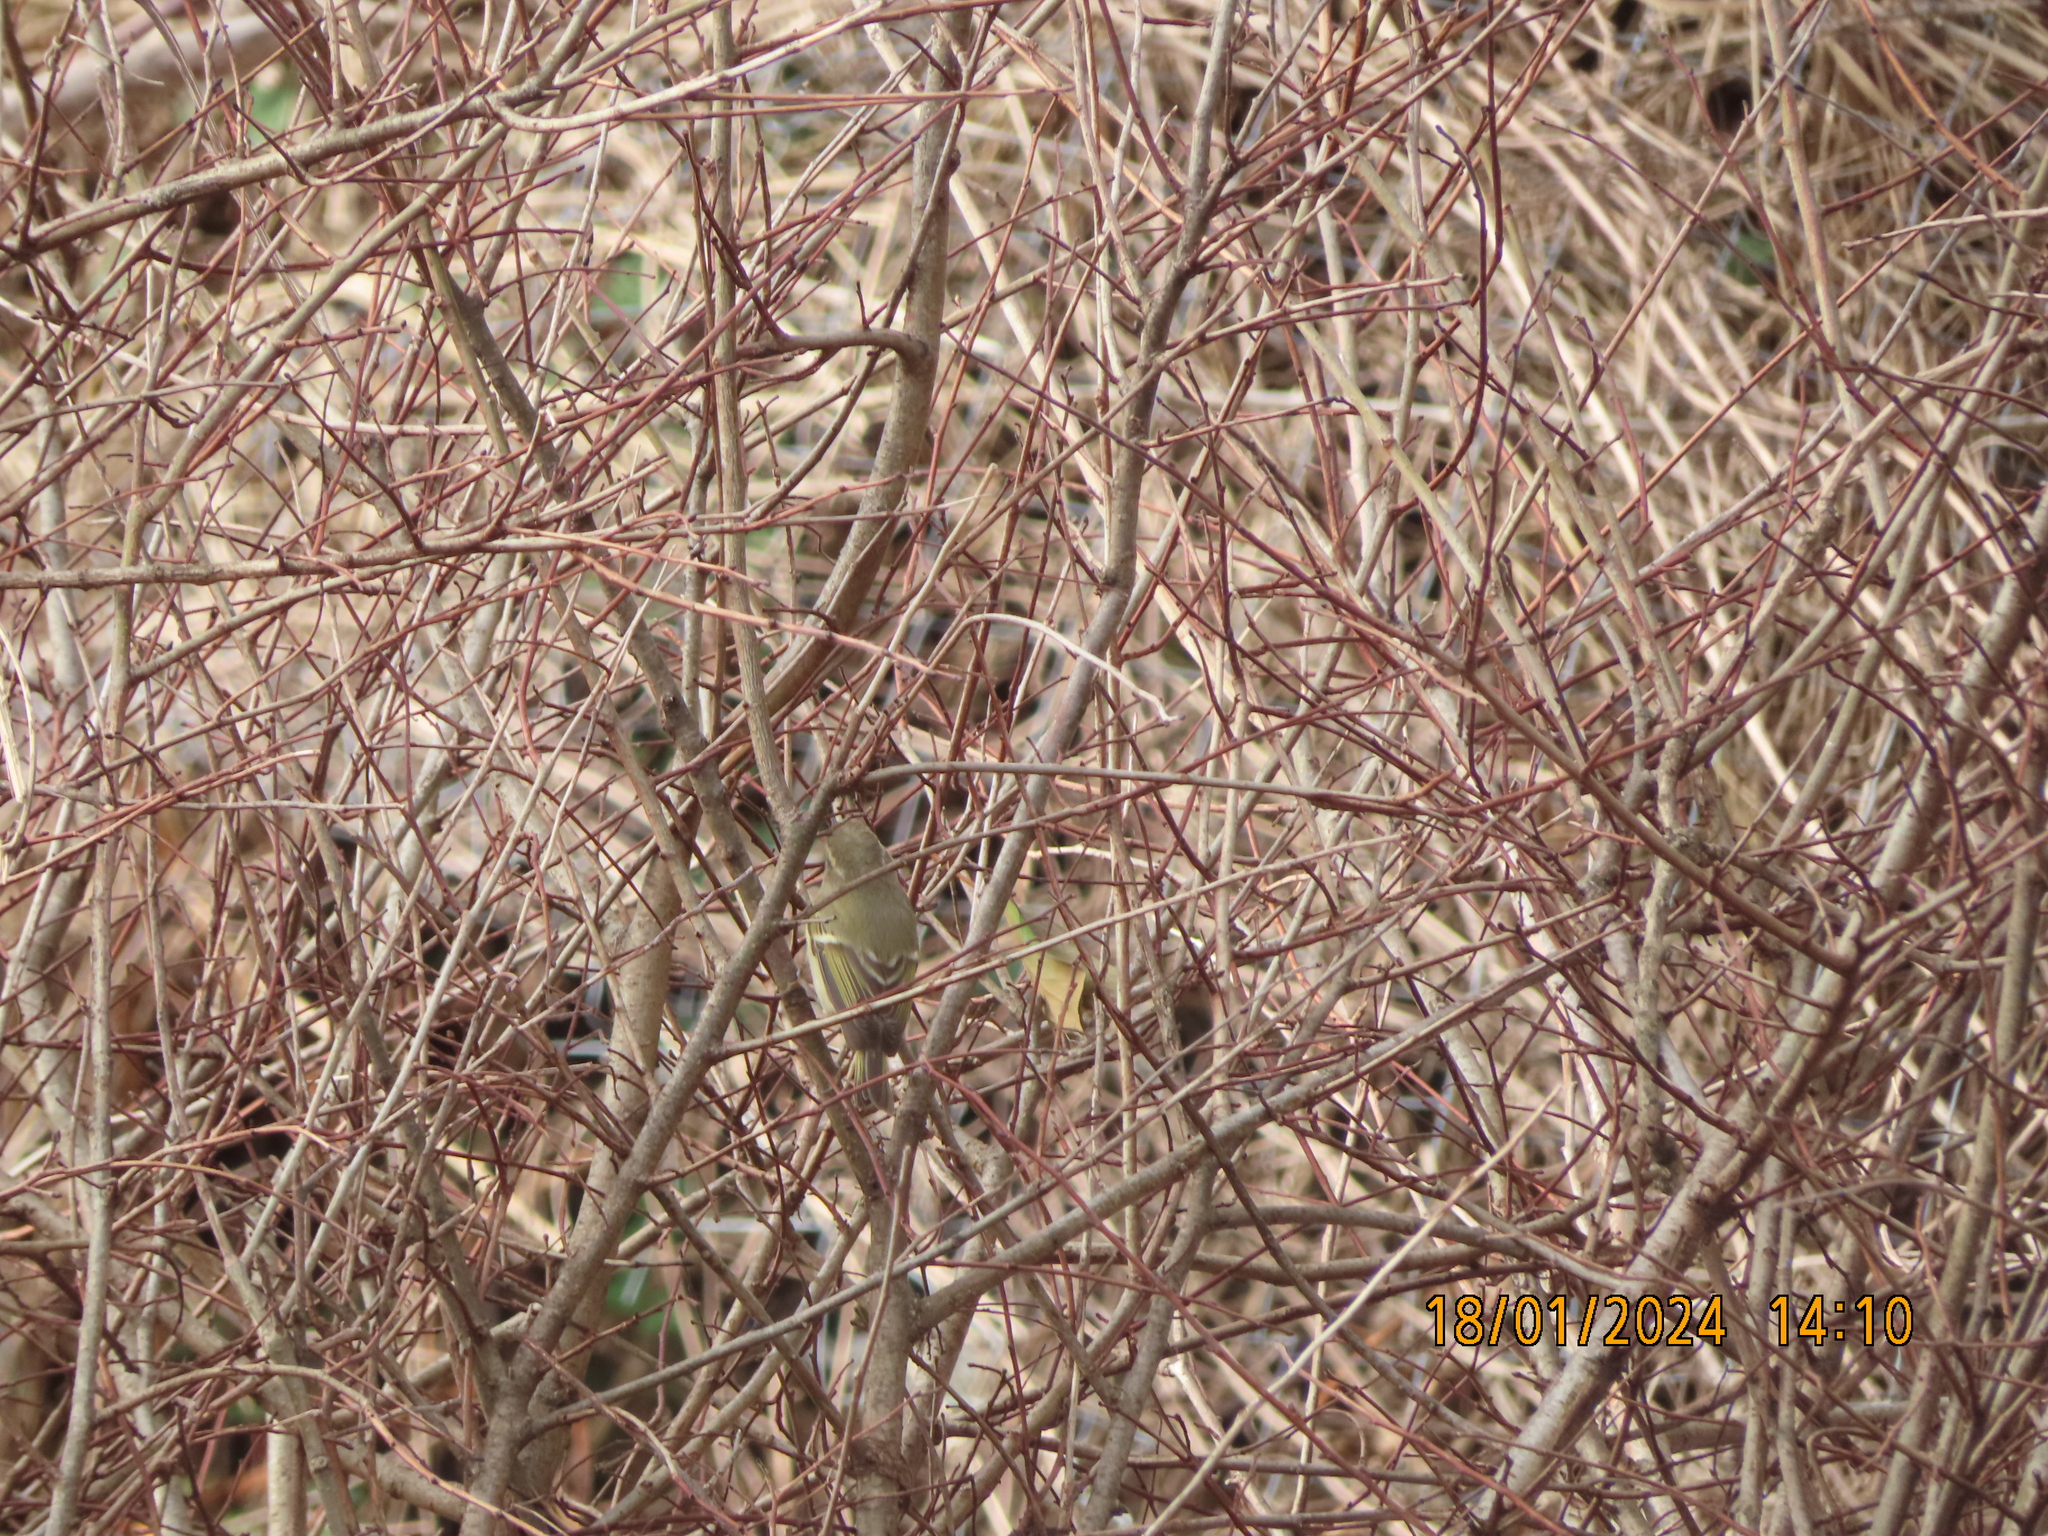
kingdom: Animalia
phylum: Chordata
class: Aves
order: Passeriformes
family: Phylloscopidae
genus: Phylloscopus
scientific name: Phylloscopus inornatus
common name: Yellow-browed warbler
